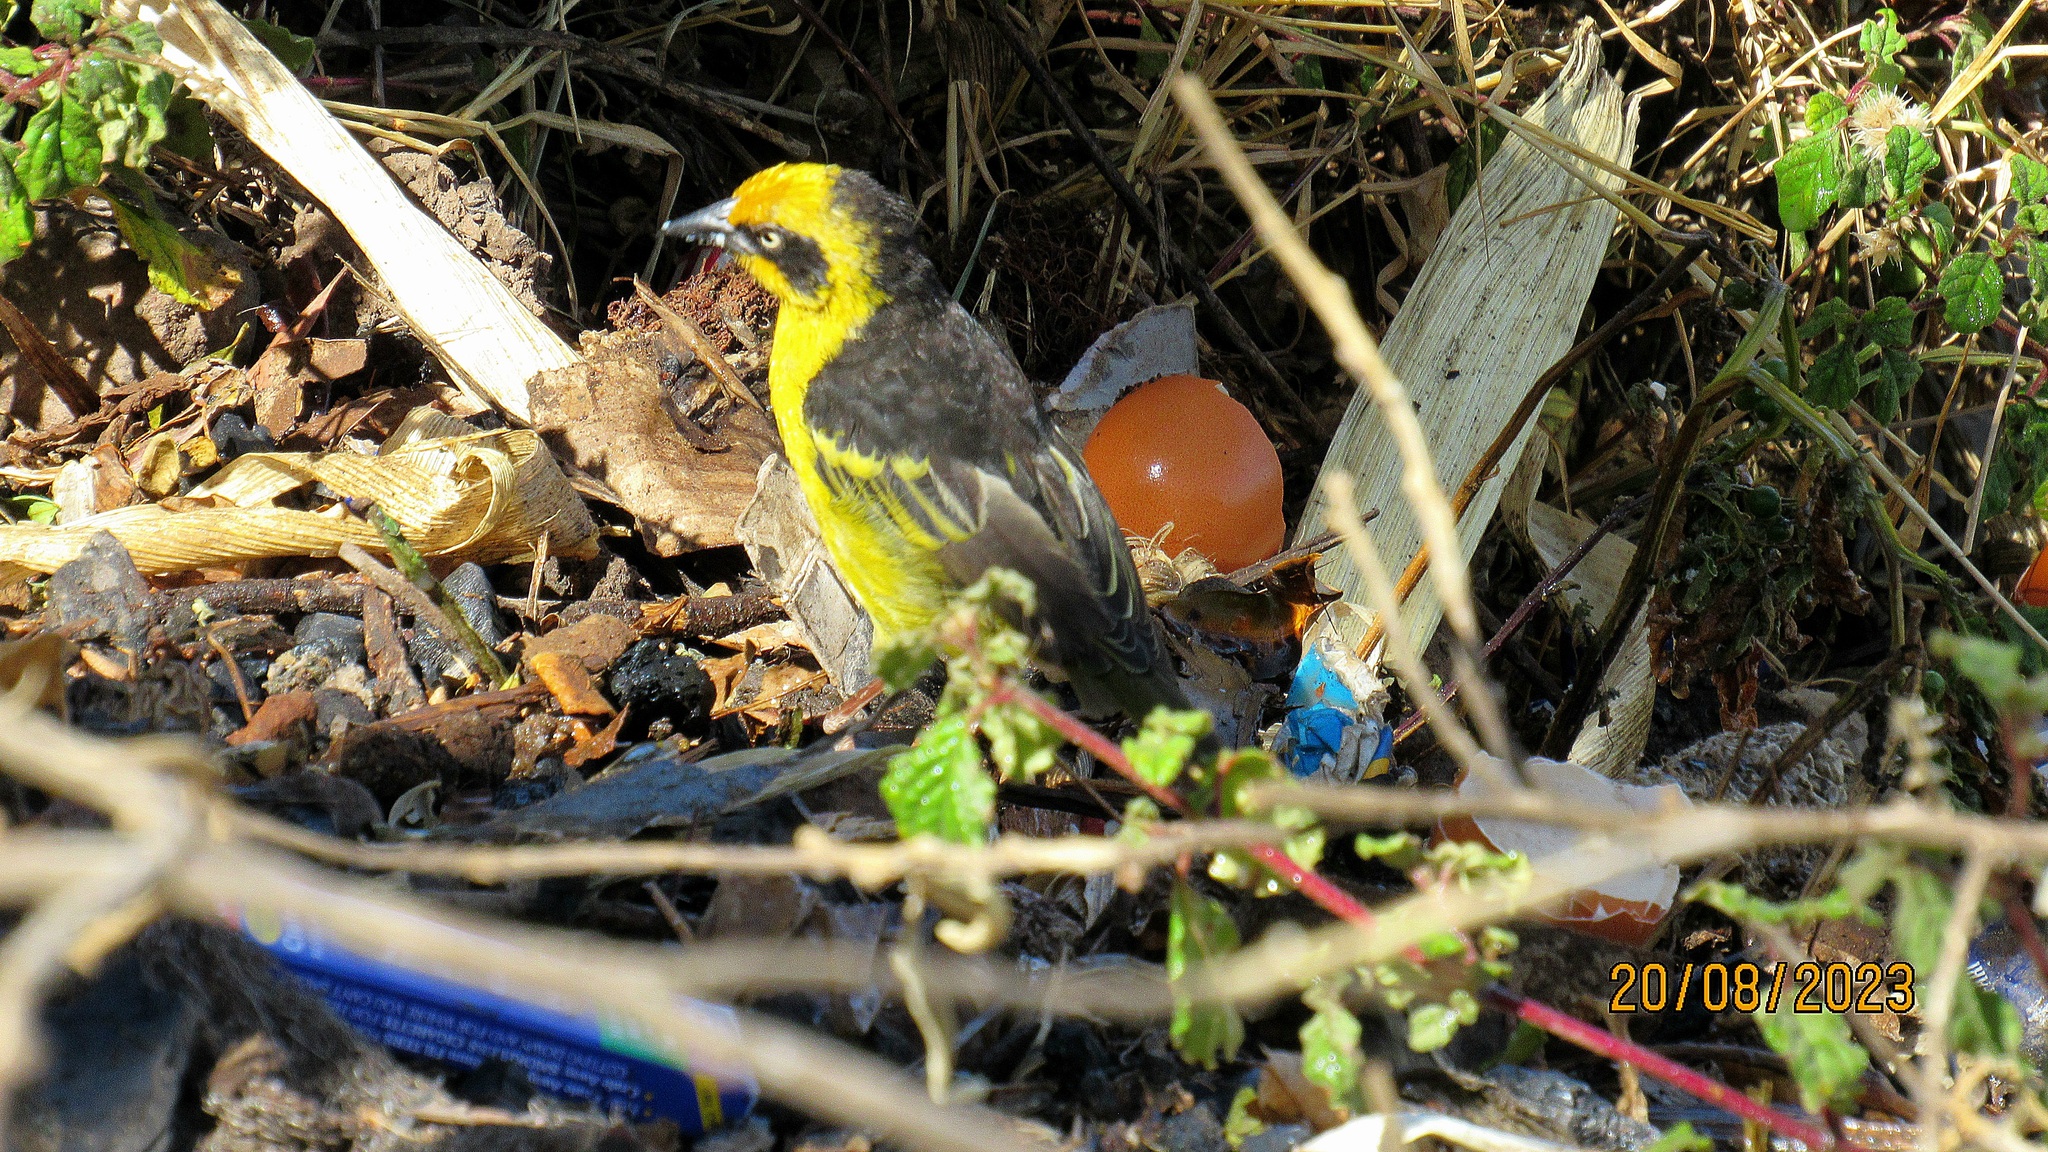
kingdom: Animalia
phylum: Chordata
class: Aves
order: Passeriformes
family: Ploceidae
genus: Ploceus
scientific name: Ploceus baglafecht
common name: Baglafecht weaver
